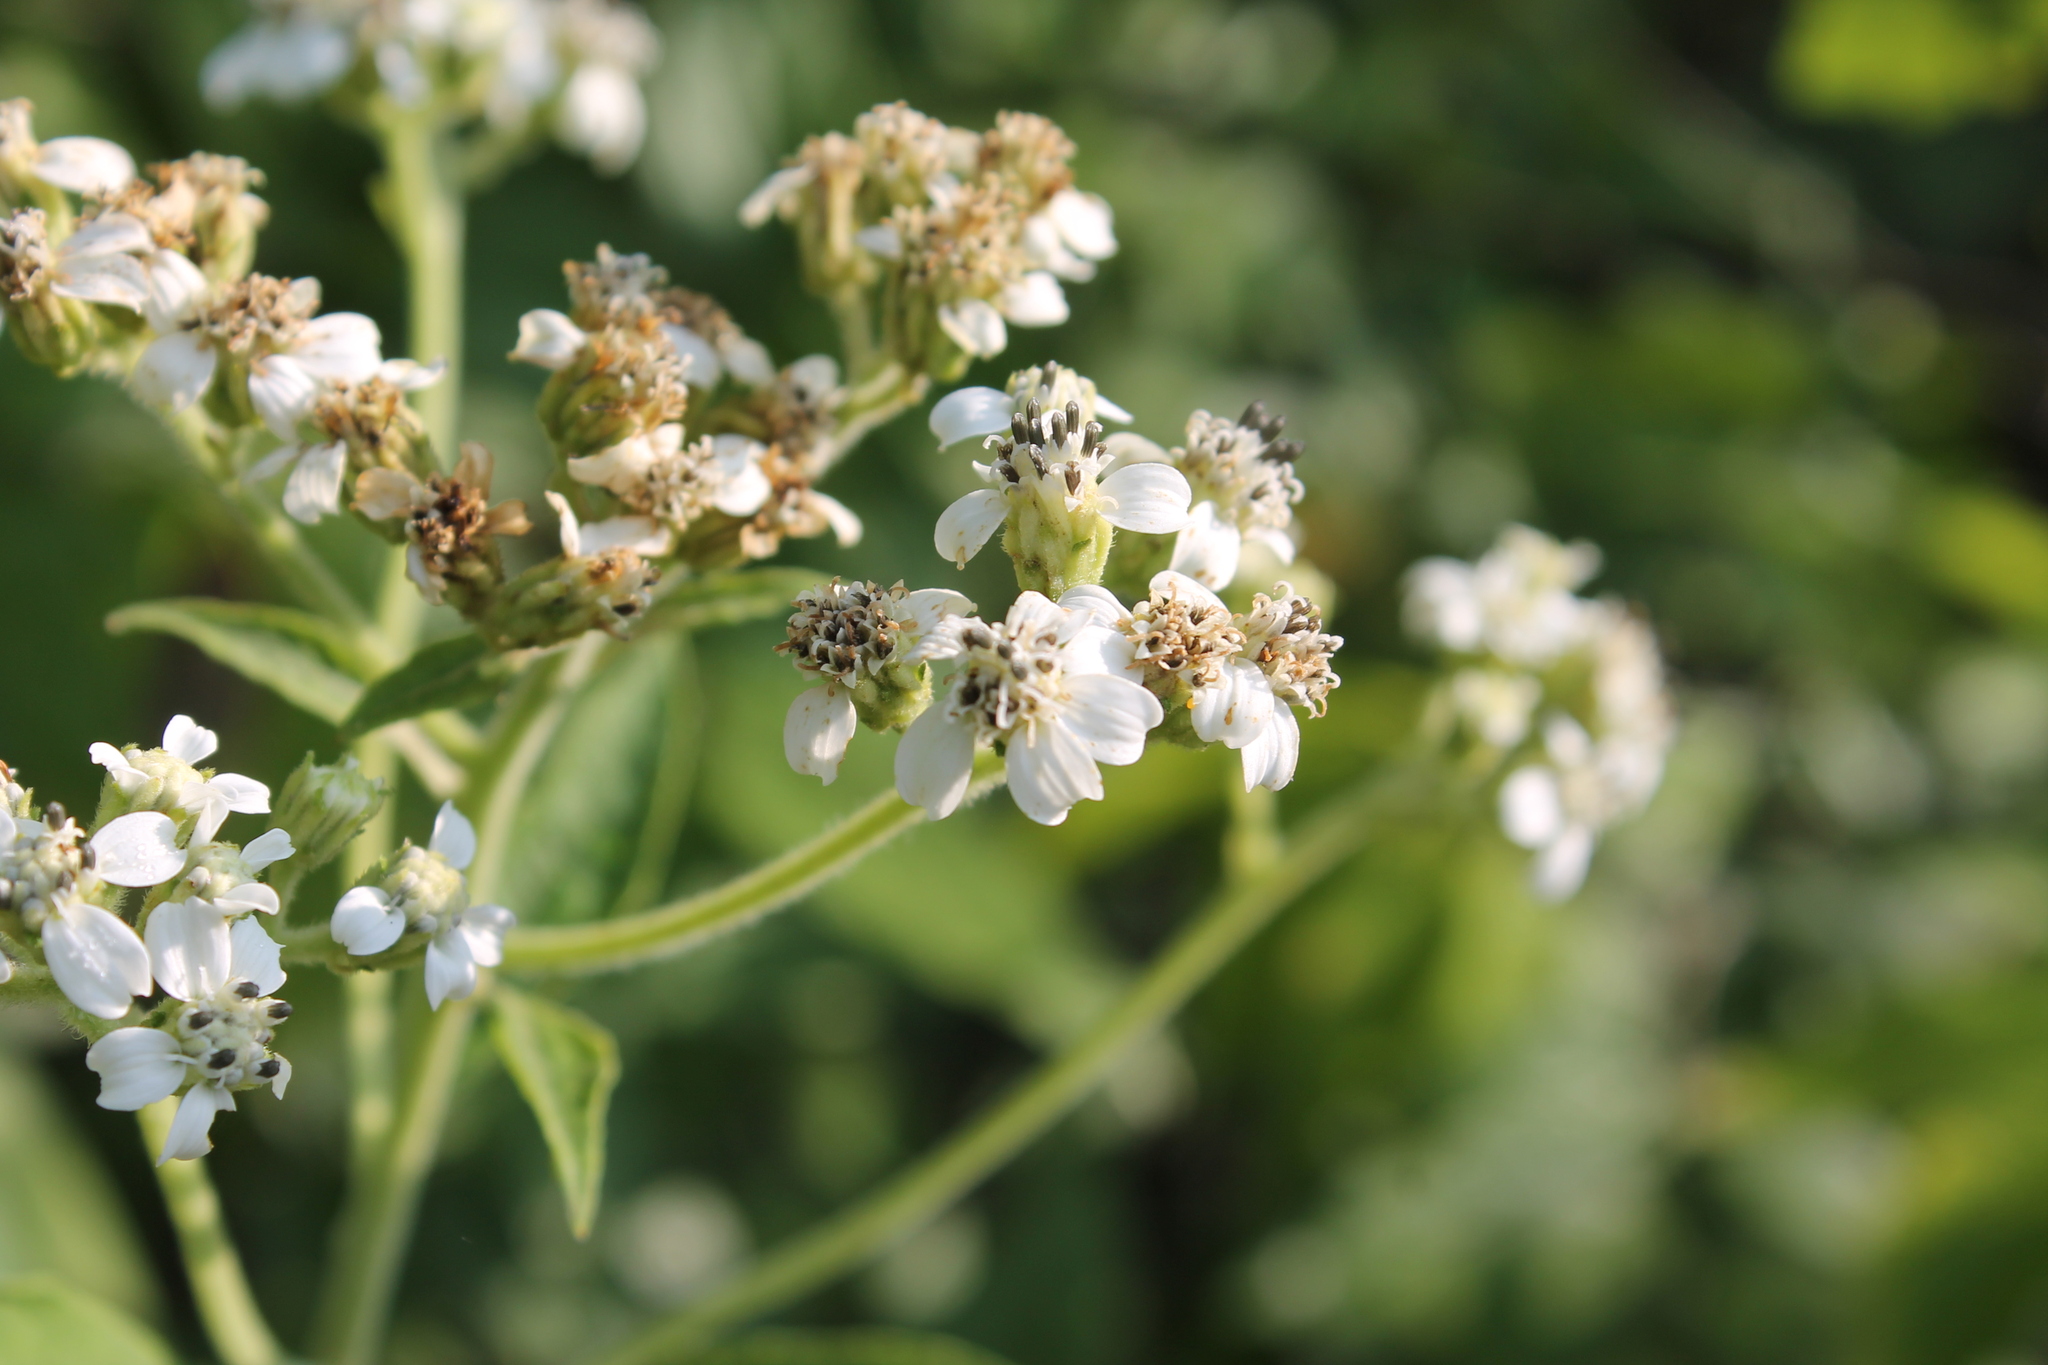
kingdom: Plantae
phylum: Tracheophyta
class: Magnoliopsida
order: Asterales
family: Asteraceae
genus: Verbesina
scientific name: Verbesina virginica
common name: Frostweed
